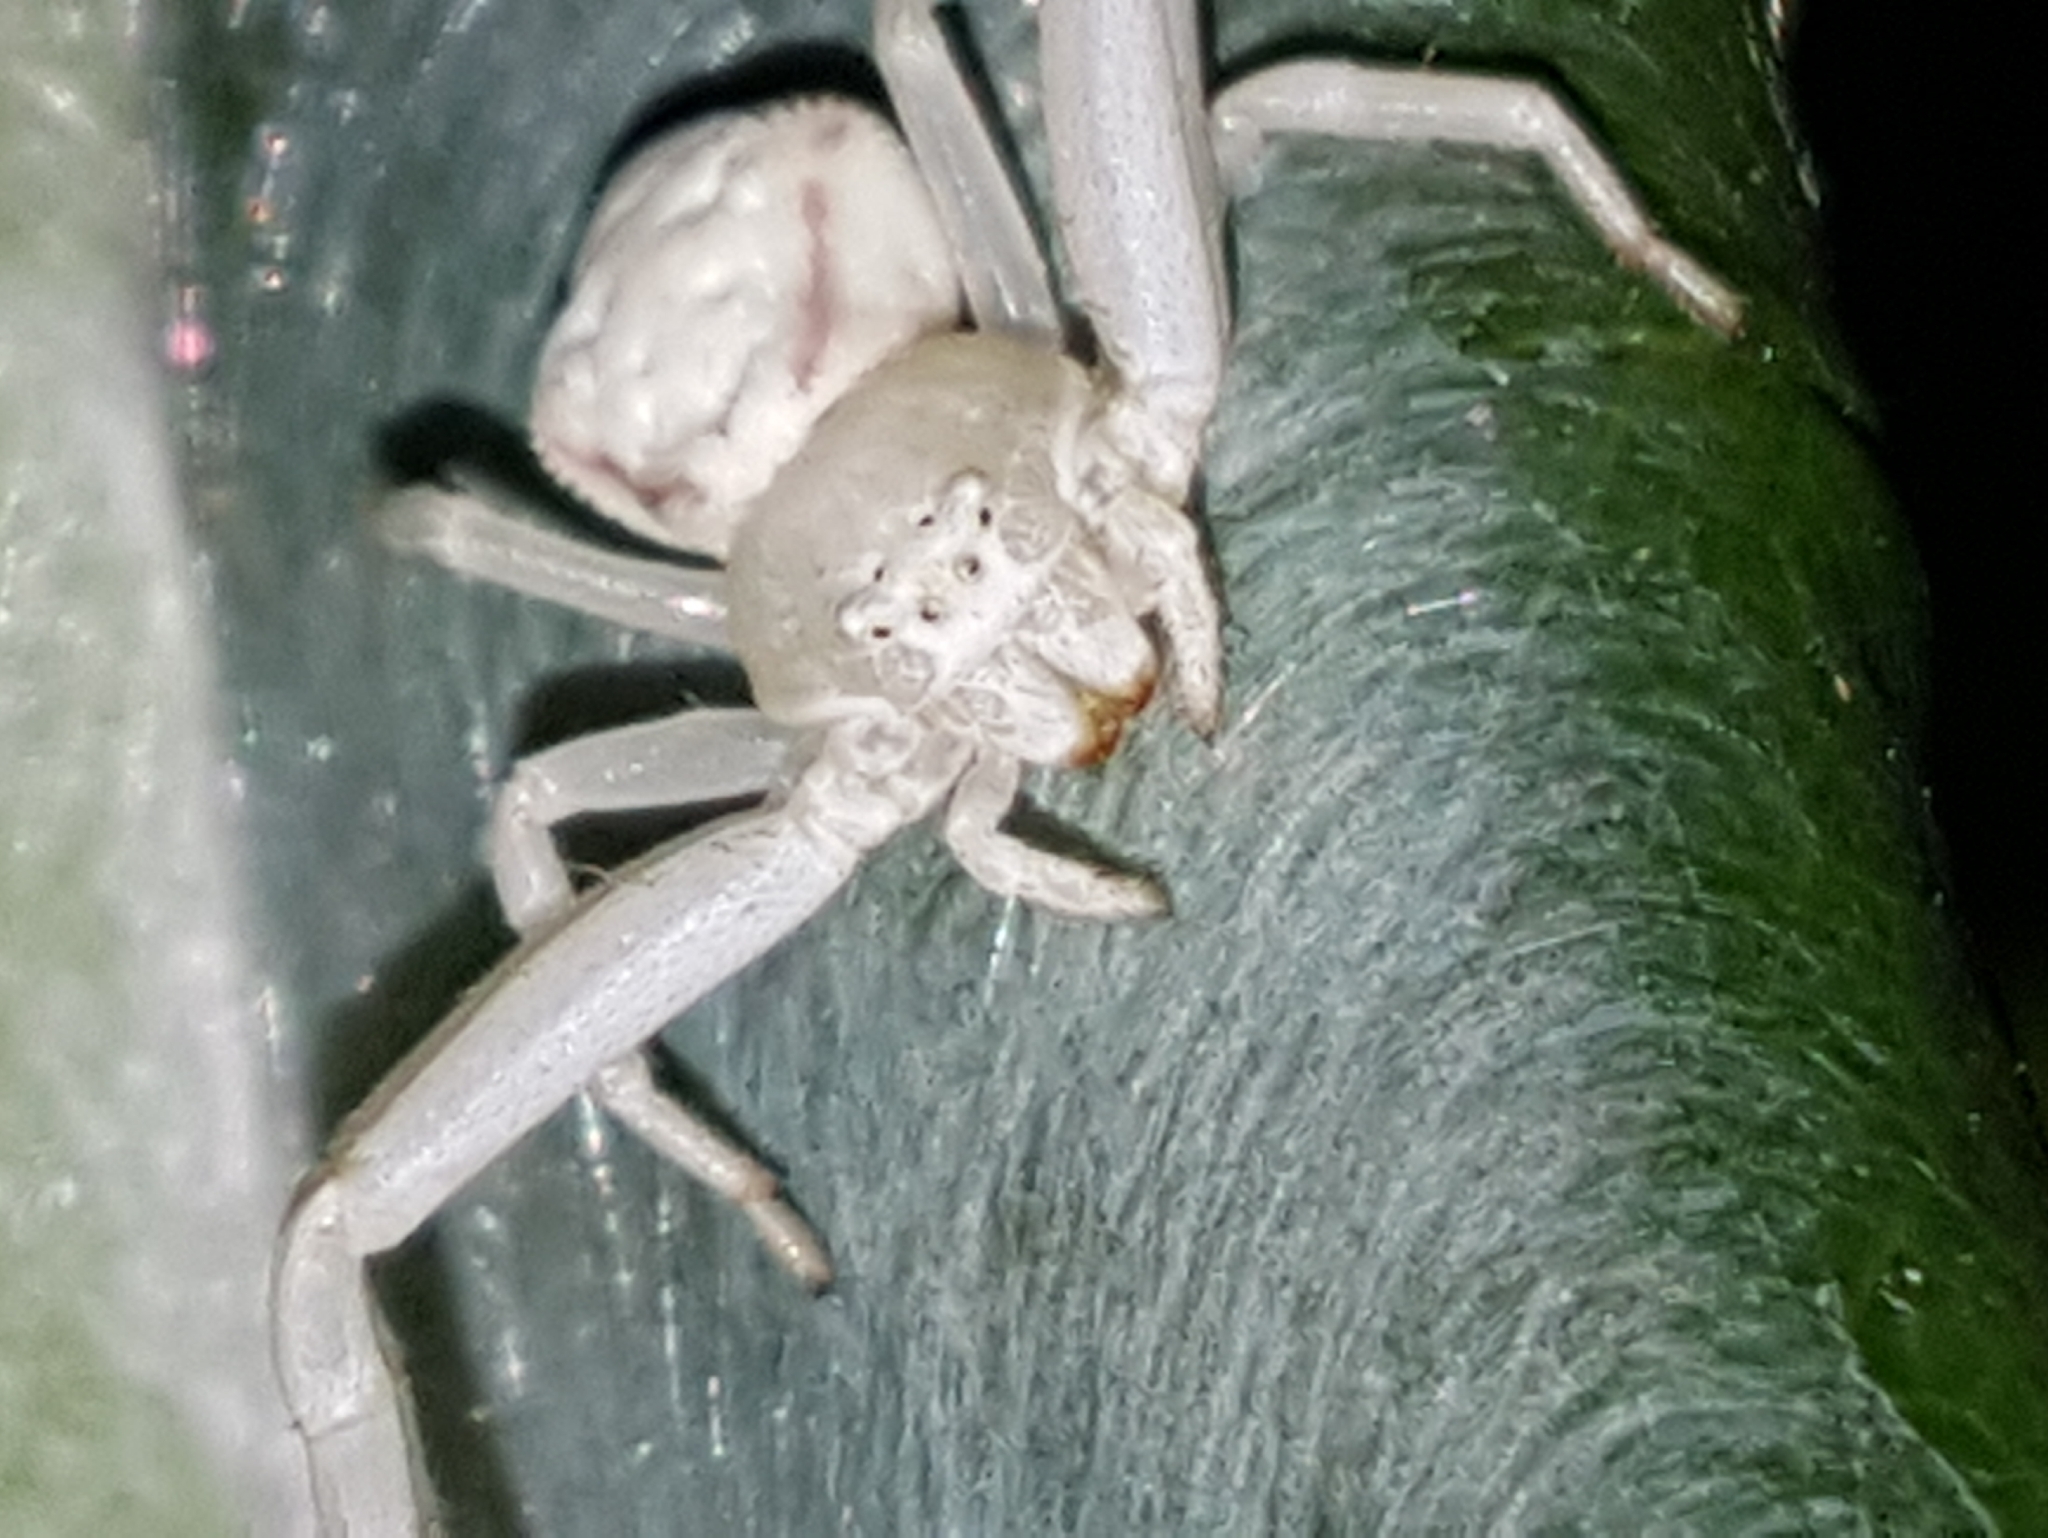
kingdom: Animalia
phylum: Arthropoda
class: Arachnida
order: Araneae
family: Thomisidae
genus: Misumena
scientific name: Misumena vatia
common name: Goldenrod crab spider
